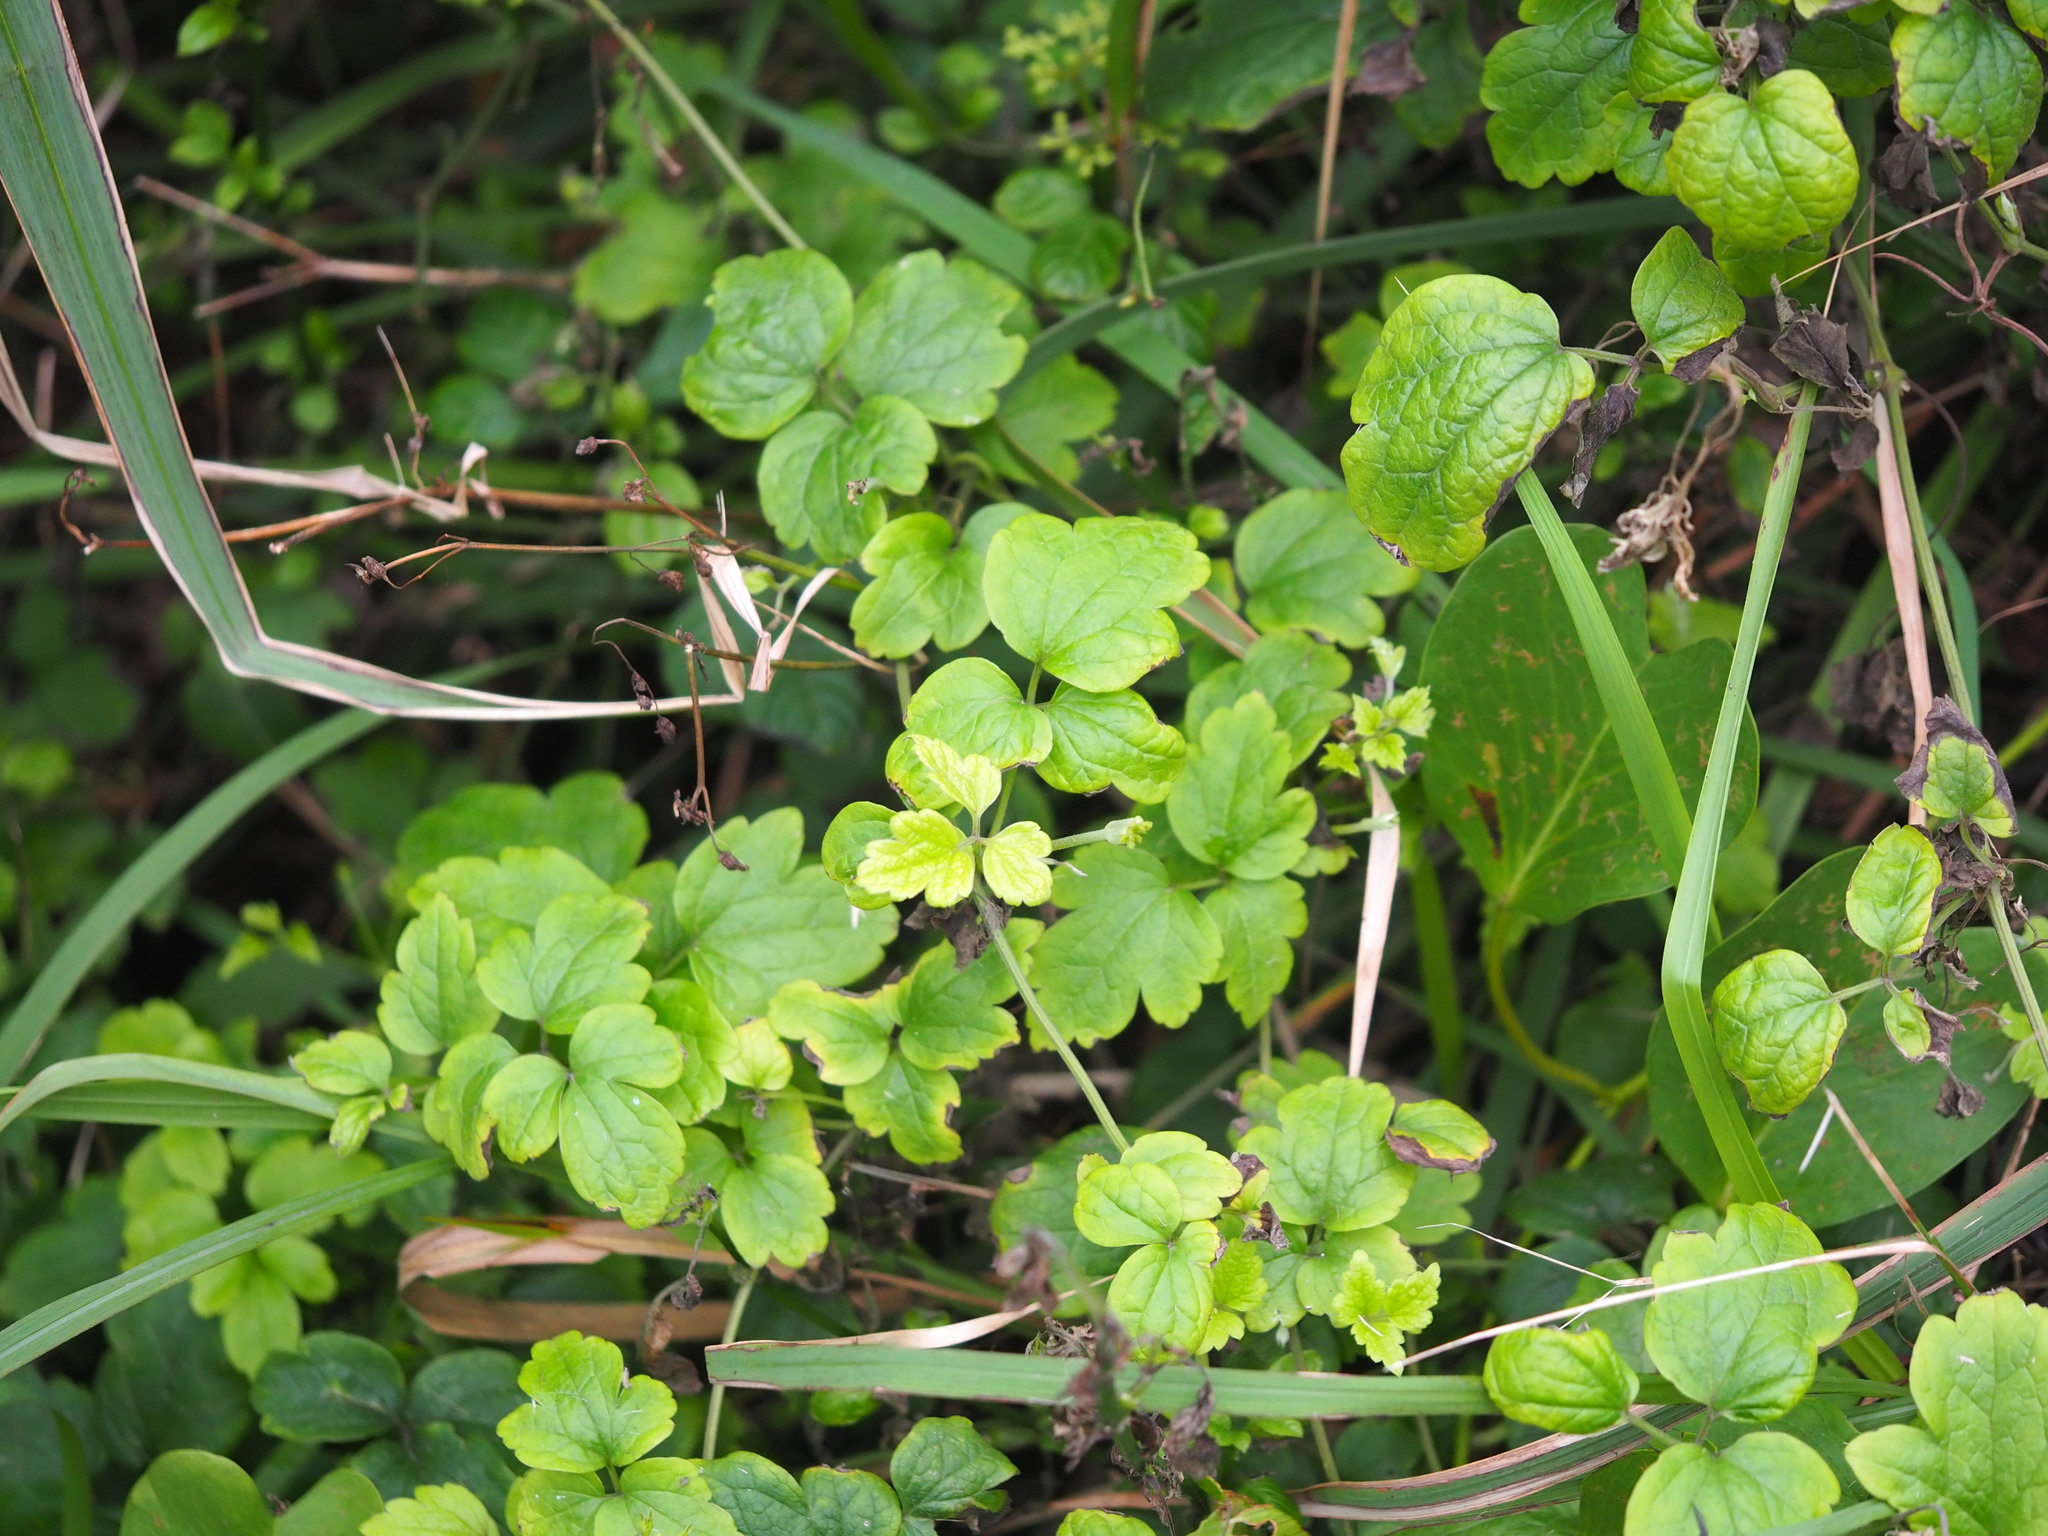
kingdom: Plantae
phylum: Tracheophyta
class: Magnoliopsida
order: Ranunculales
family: Ranunculaceae
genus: Clematis
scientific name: Clematis grata
